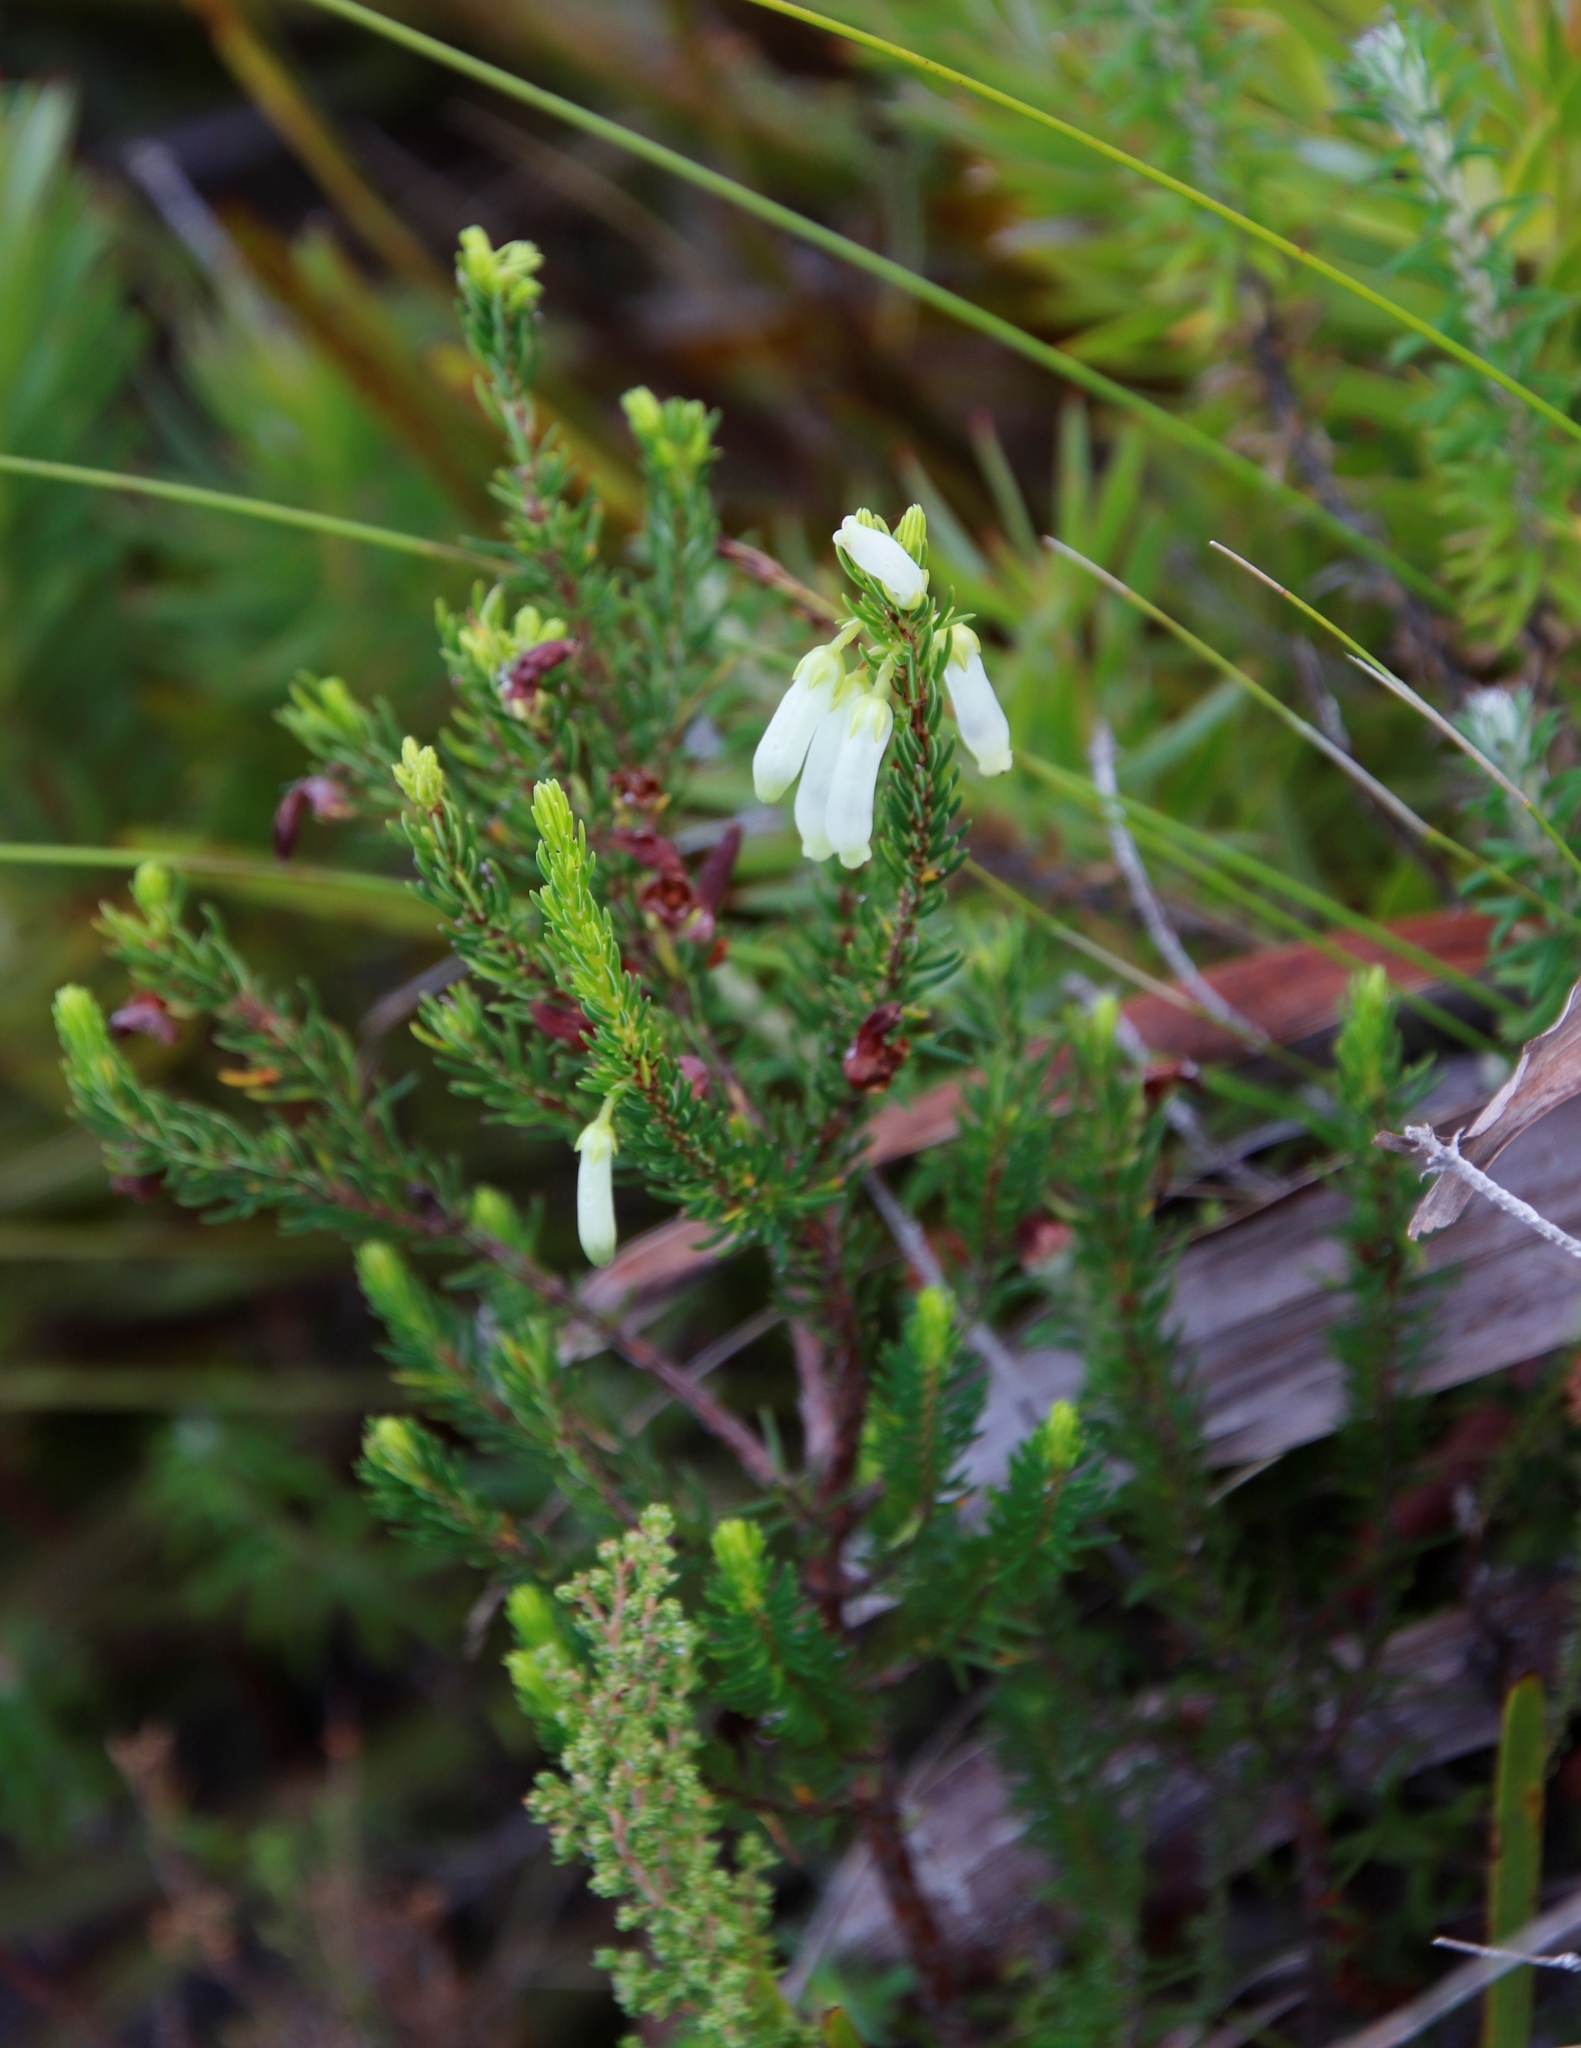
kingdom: Plantae
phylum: Tracheophyta
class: Magnoliopsida
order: Ericales
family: Ericaceae
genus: Erica
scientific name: Erica mammosa
